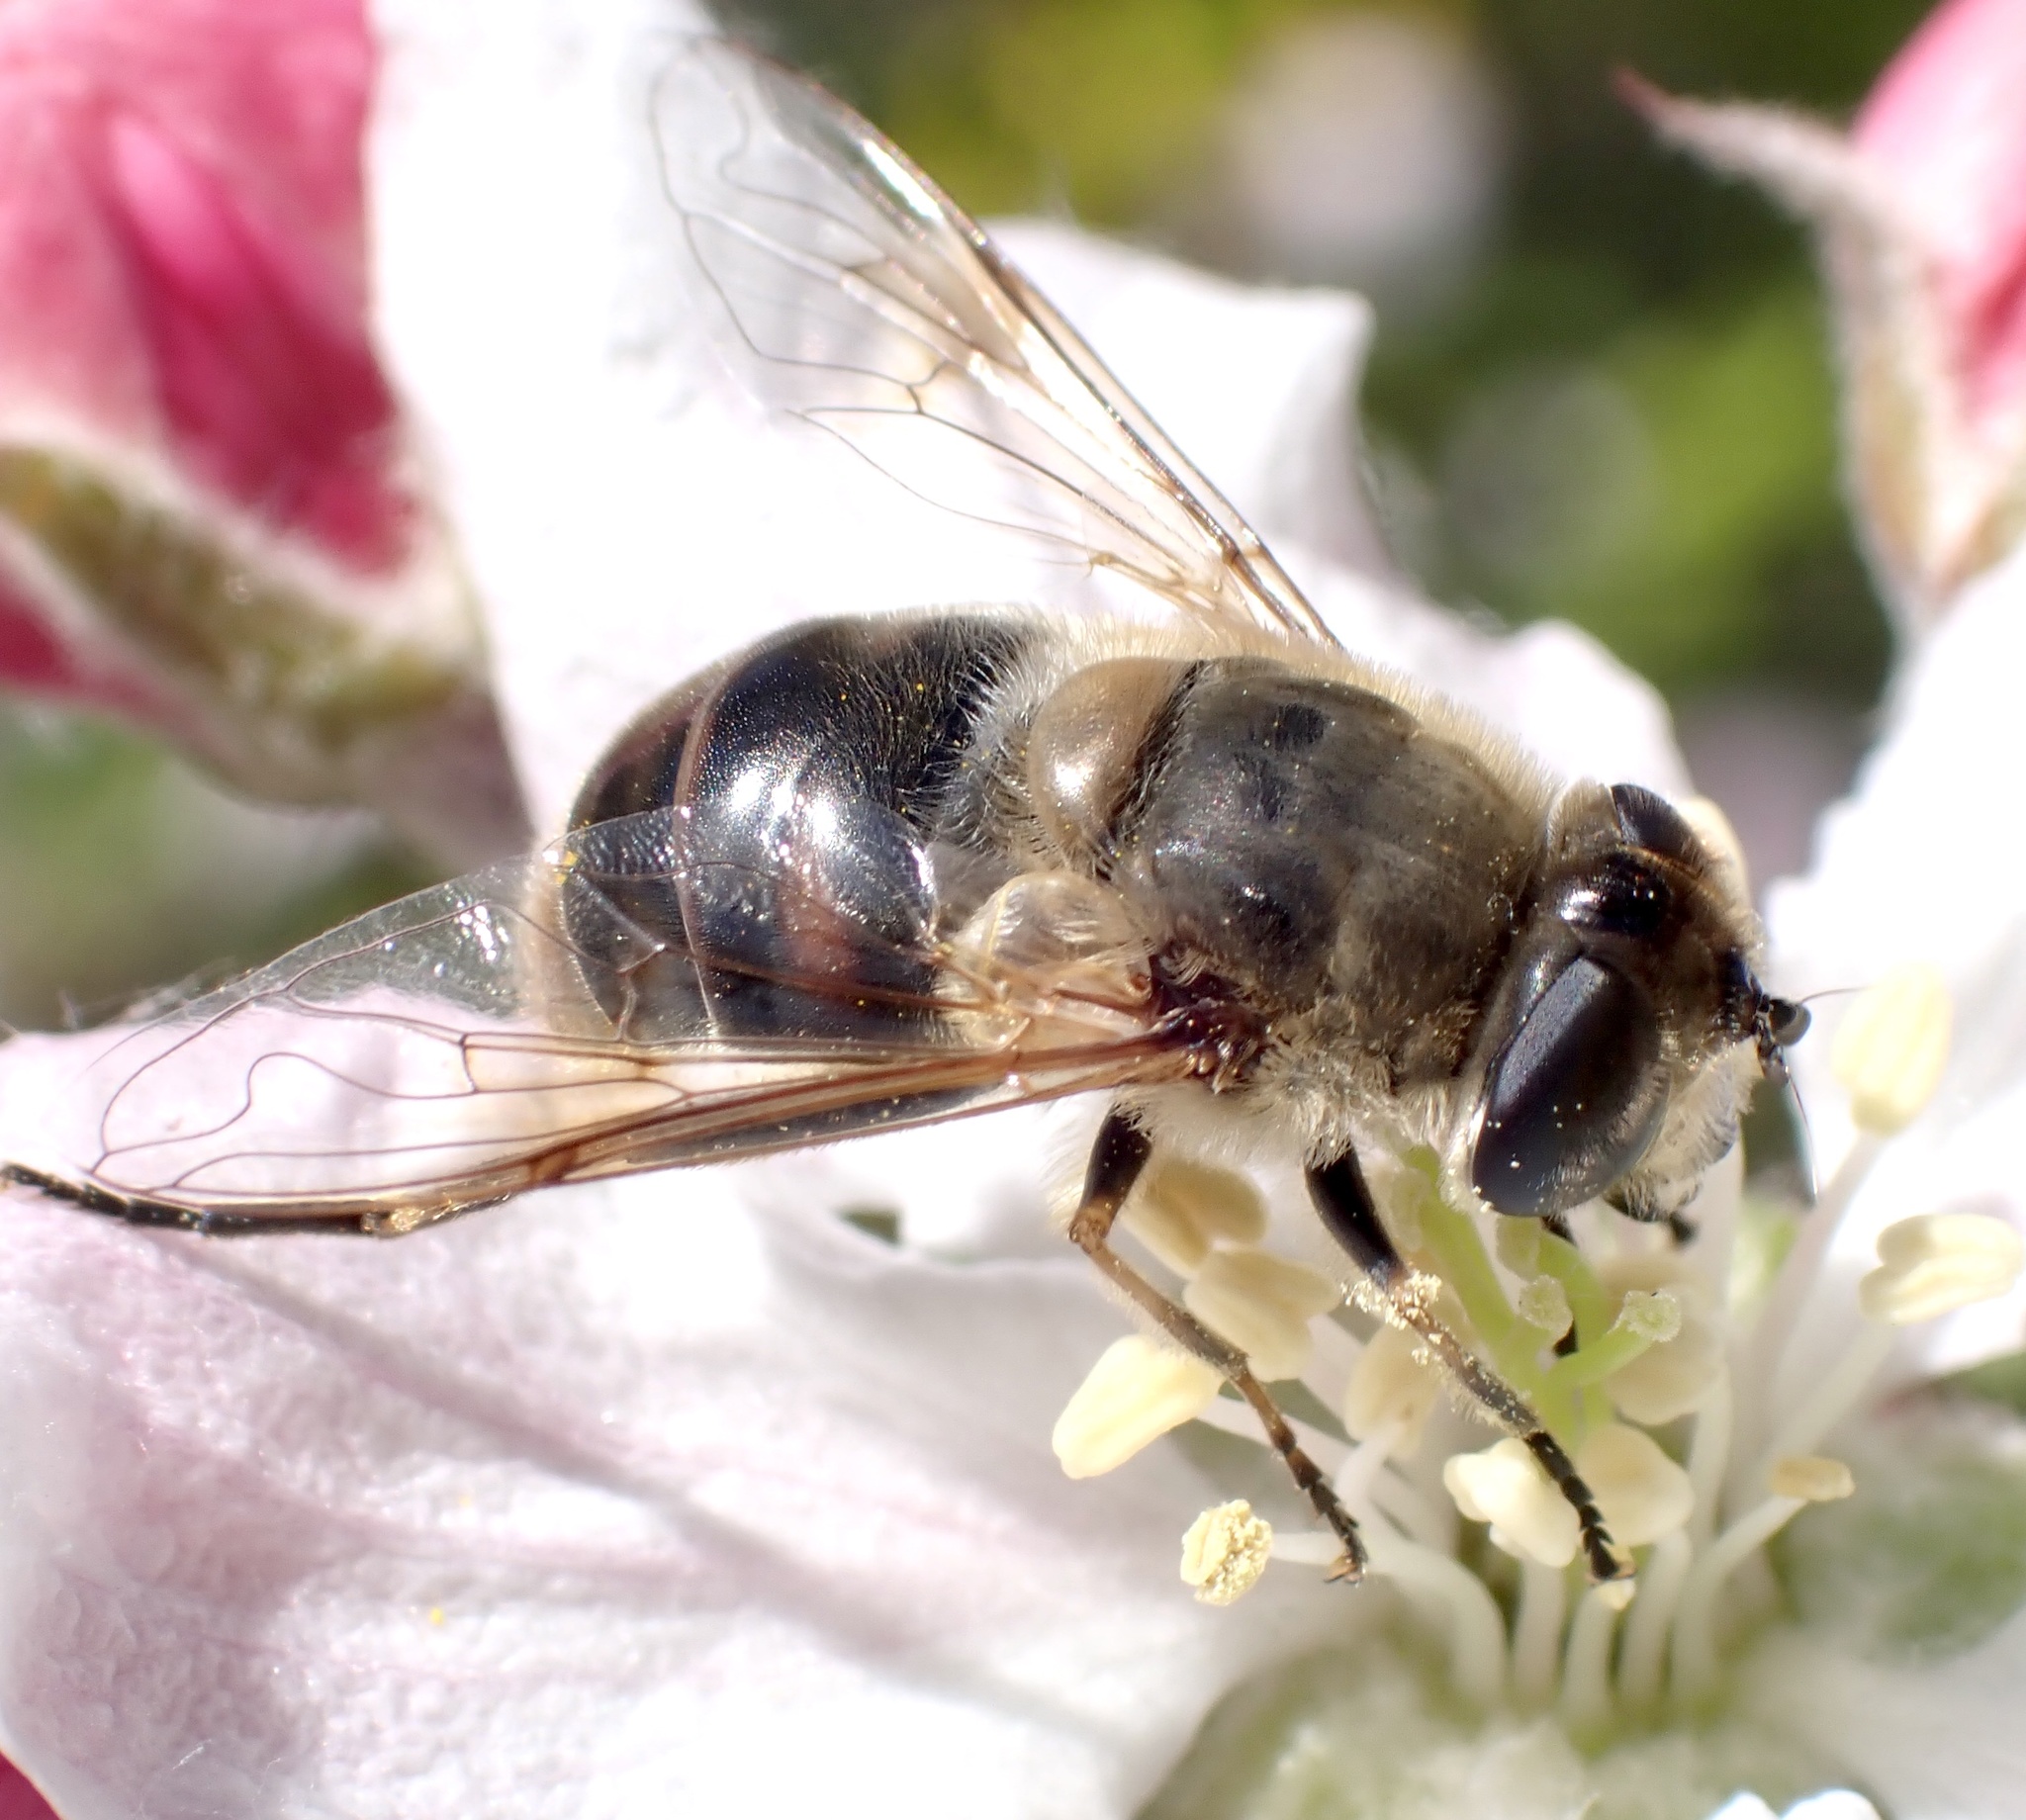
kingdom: Animalia
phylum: Arthropoda
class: Insecta
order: Diptera
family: Syrphidae
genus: Eristalis
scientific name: Eristalis tenax
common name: Drone fly
